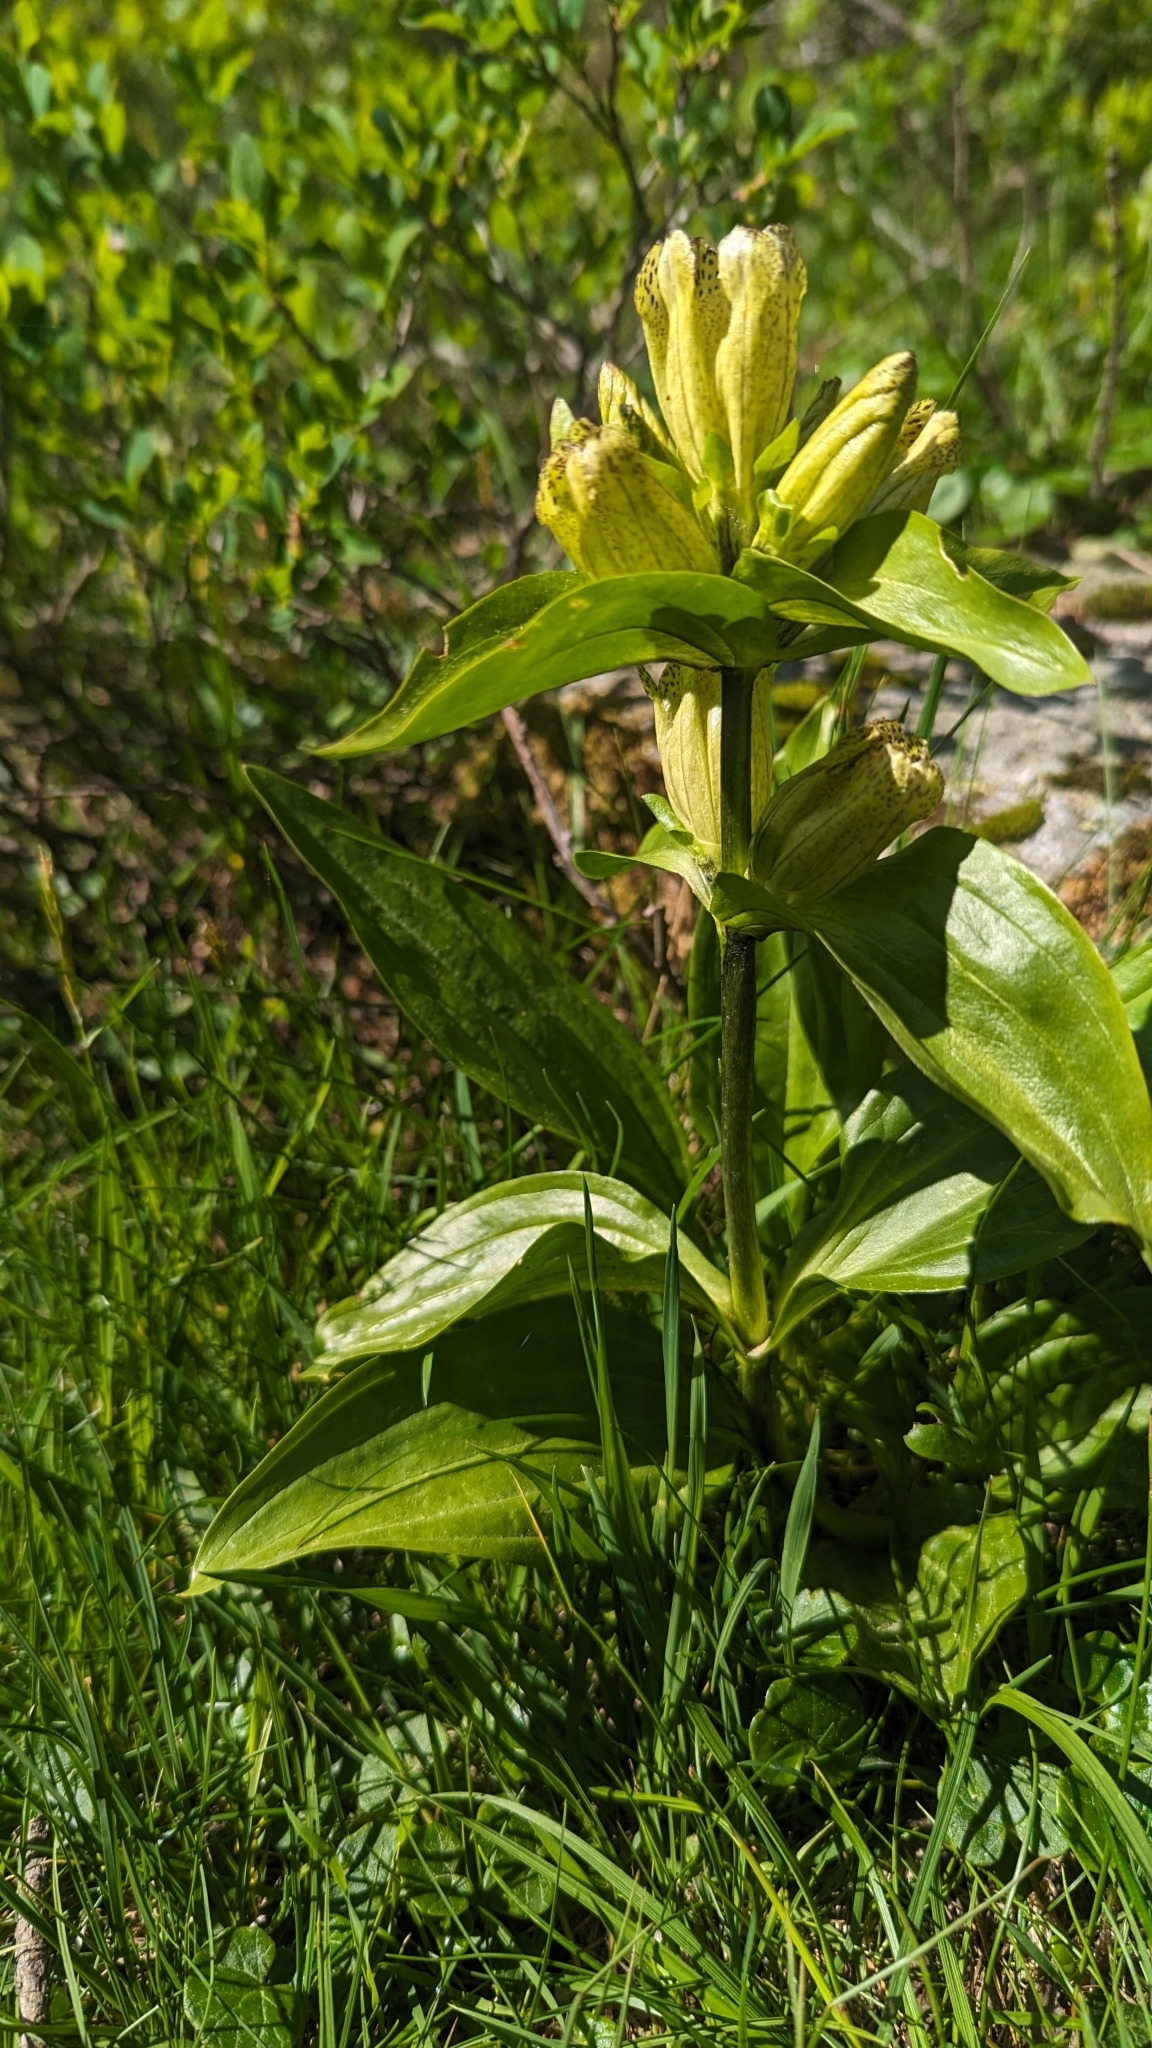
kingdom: Plantae
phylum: Tracheophyta
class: Magnoliopsida
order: Gentianales
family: Gentianaceae
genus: Gentiana
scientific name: Gentiana punctata
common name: Spotted gentian
